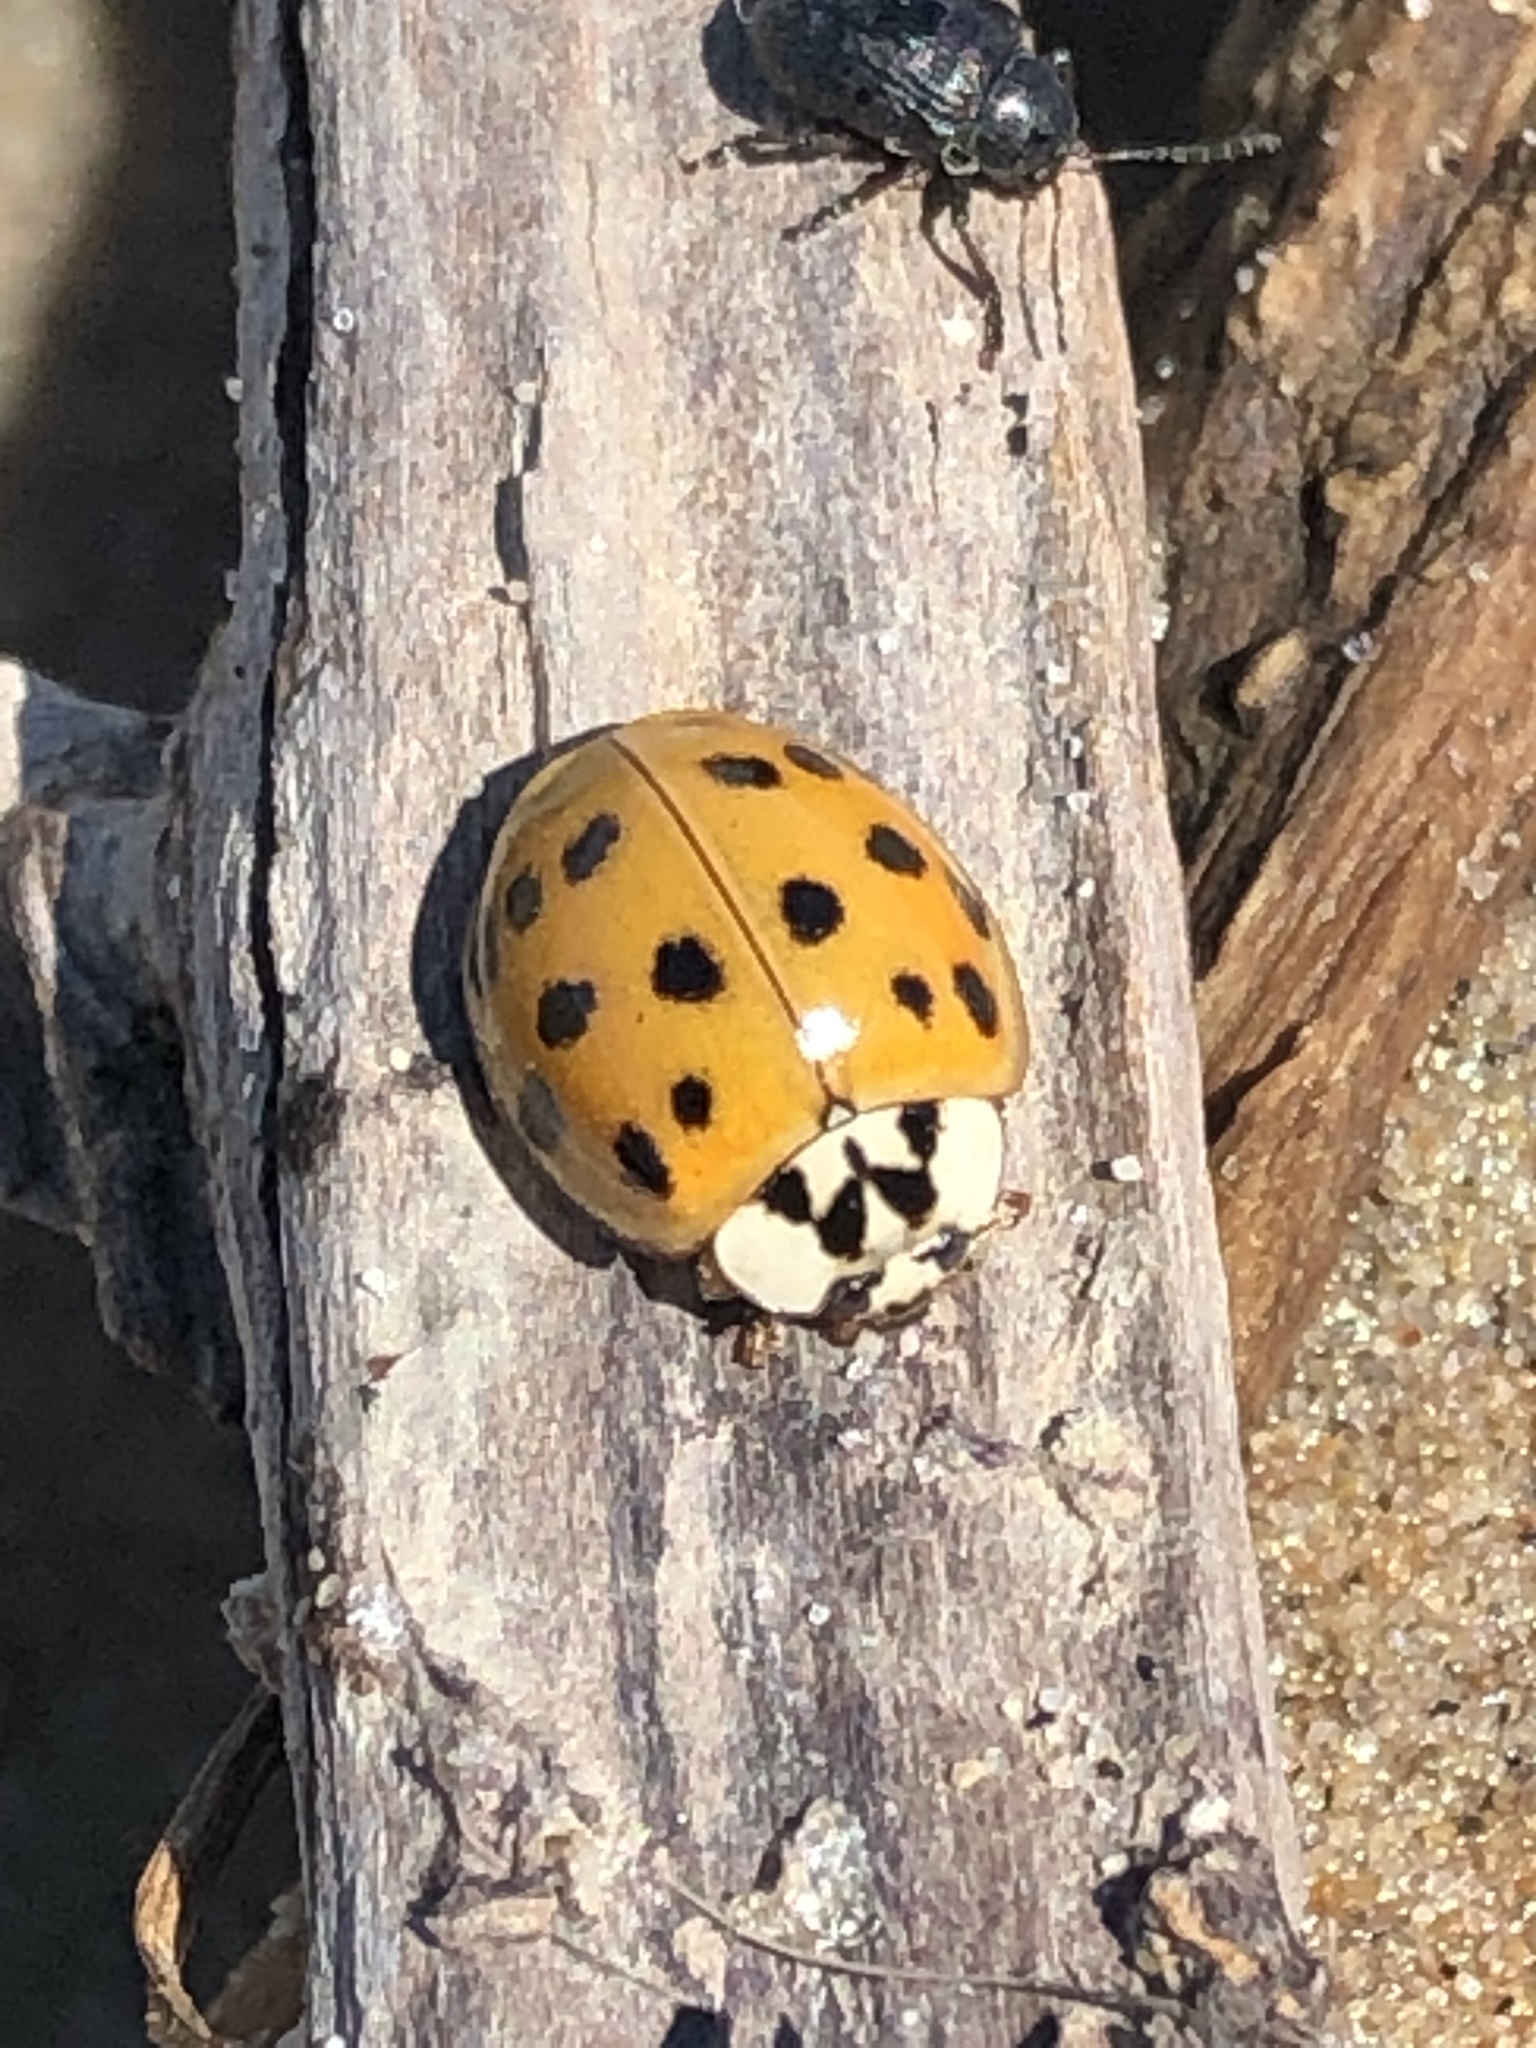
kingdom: Animalia
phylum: Arthropoda
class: Insecta
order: Coleoptera
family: Coccinellidae
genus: Harmonia
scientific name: Harmonia axyridis
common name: Harlequin ladybird
